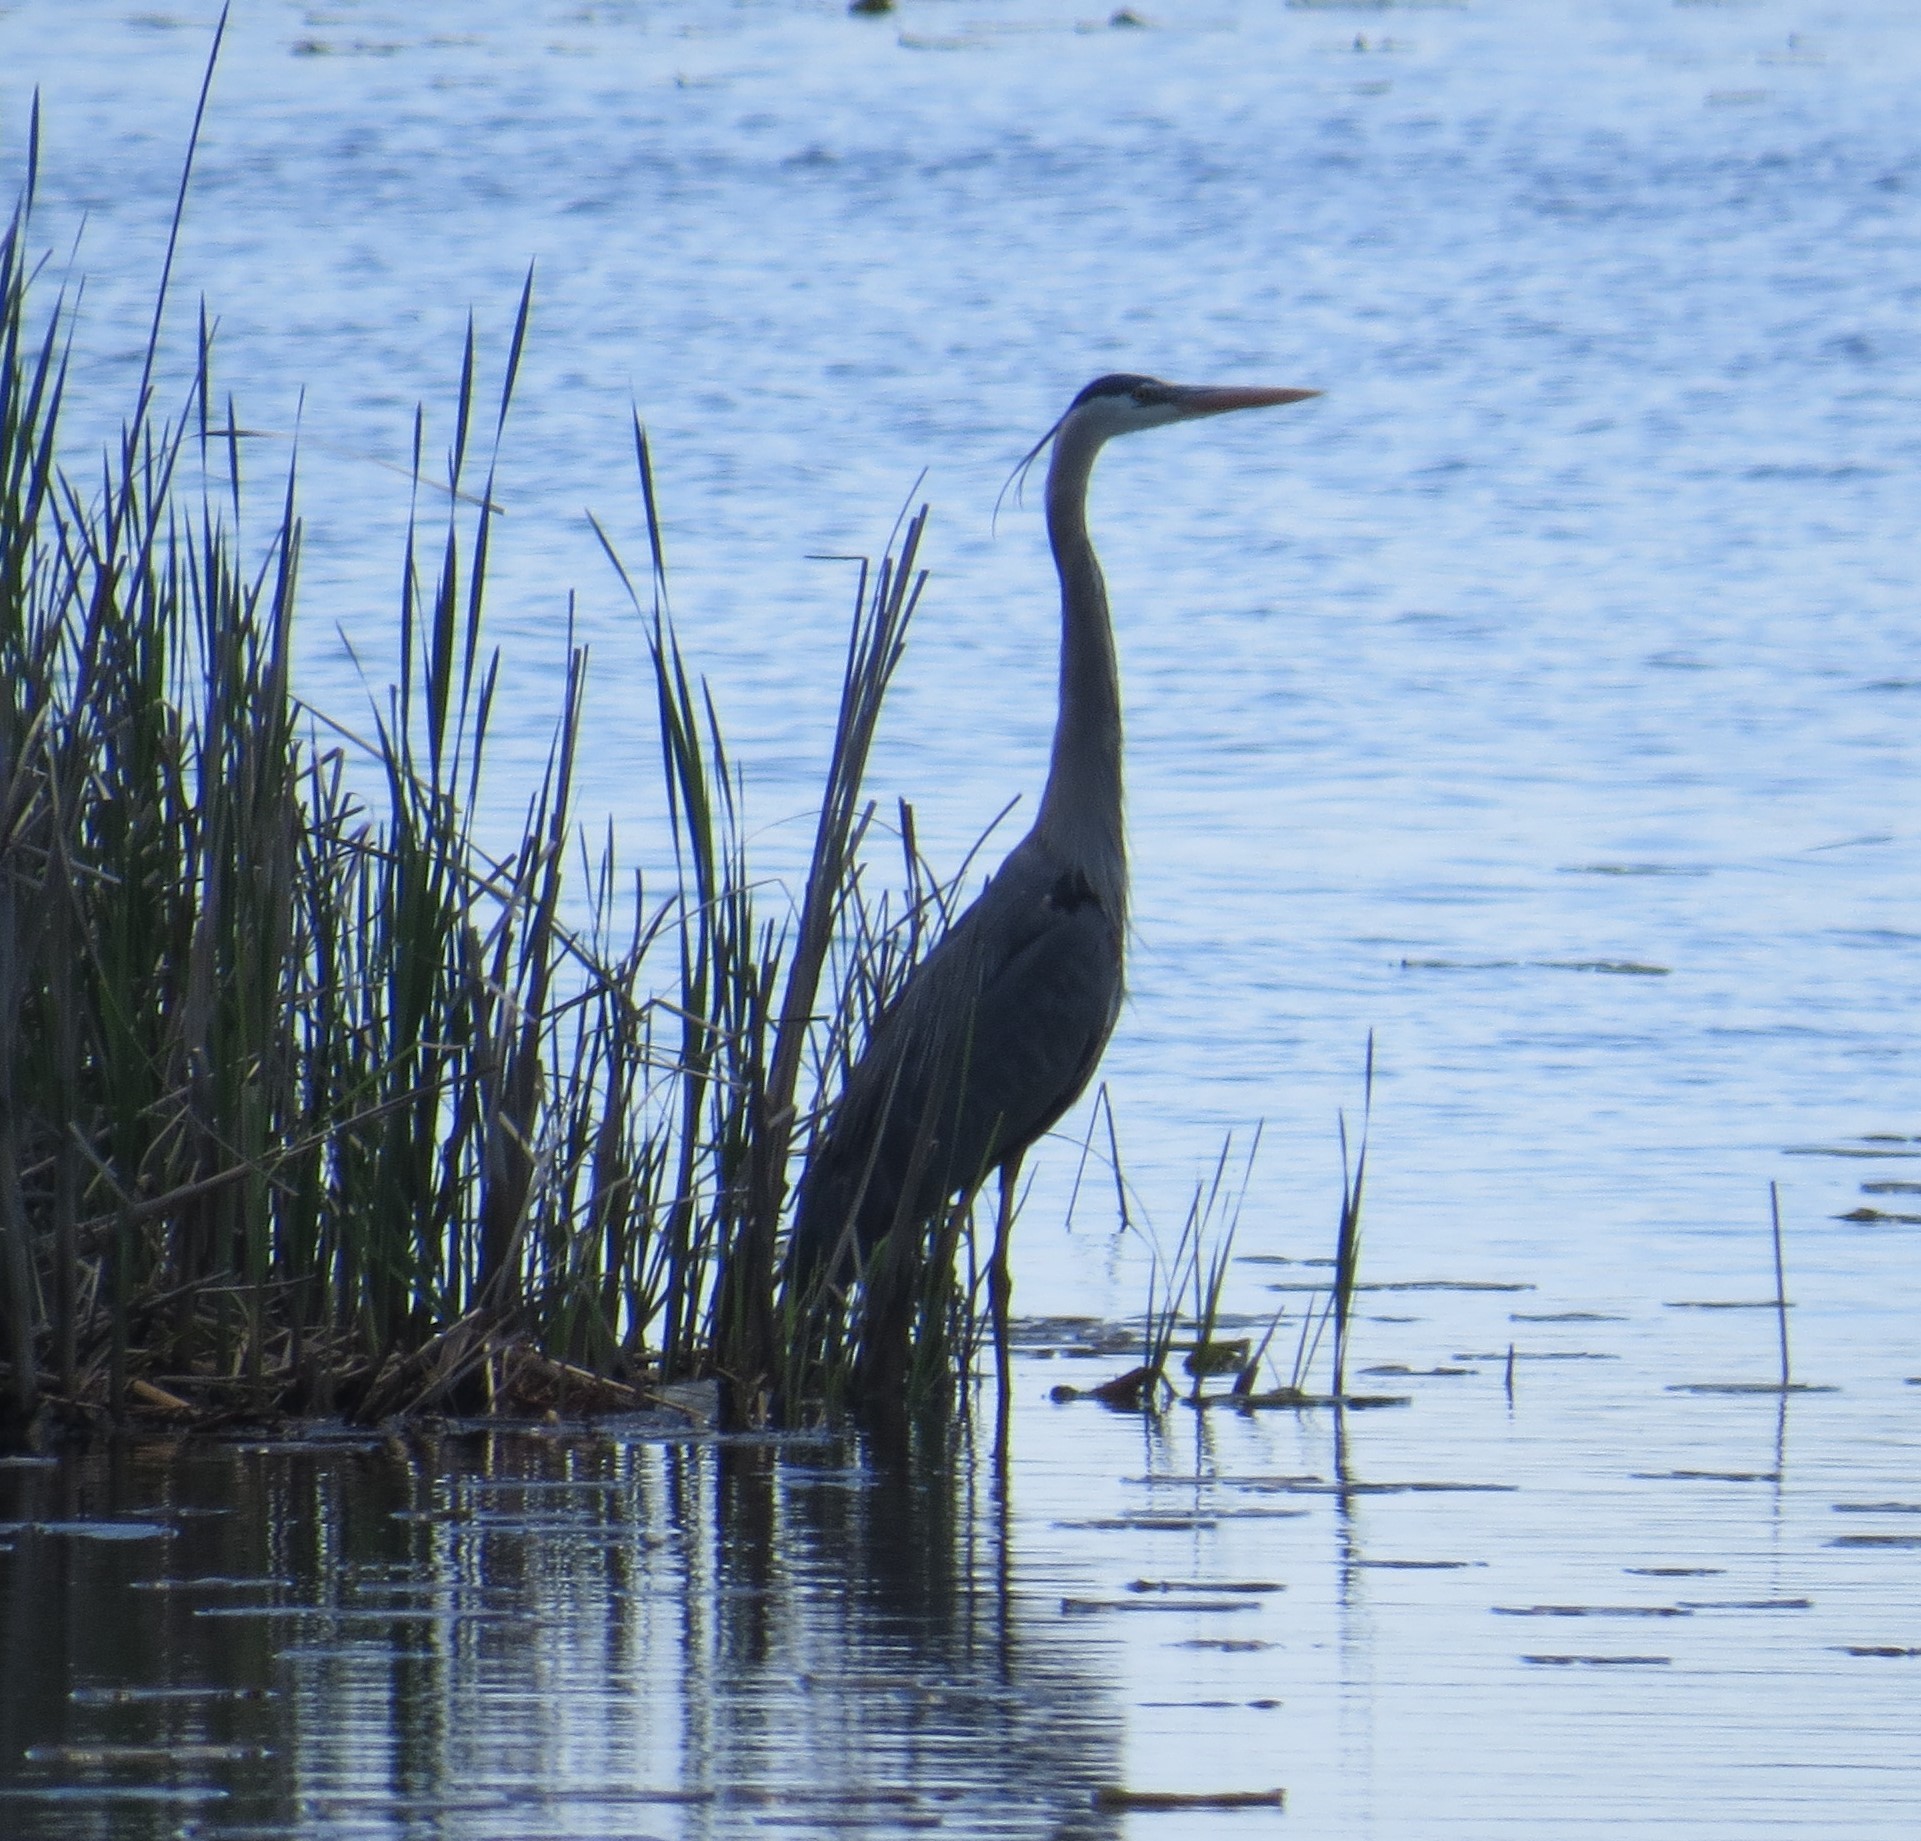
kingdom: Animalia
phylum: Chordata
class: Aves
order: Pelecaniformes
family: Ardeidae
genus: Ardea
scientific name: Ardea herodias
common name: Great blue heron
